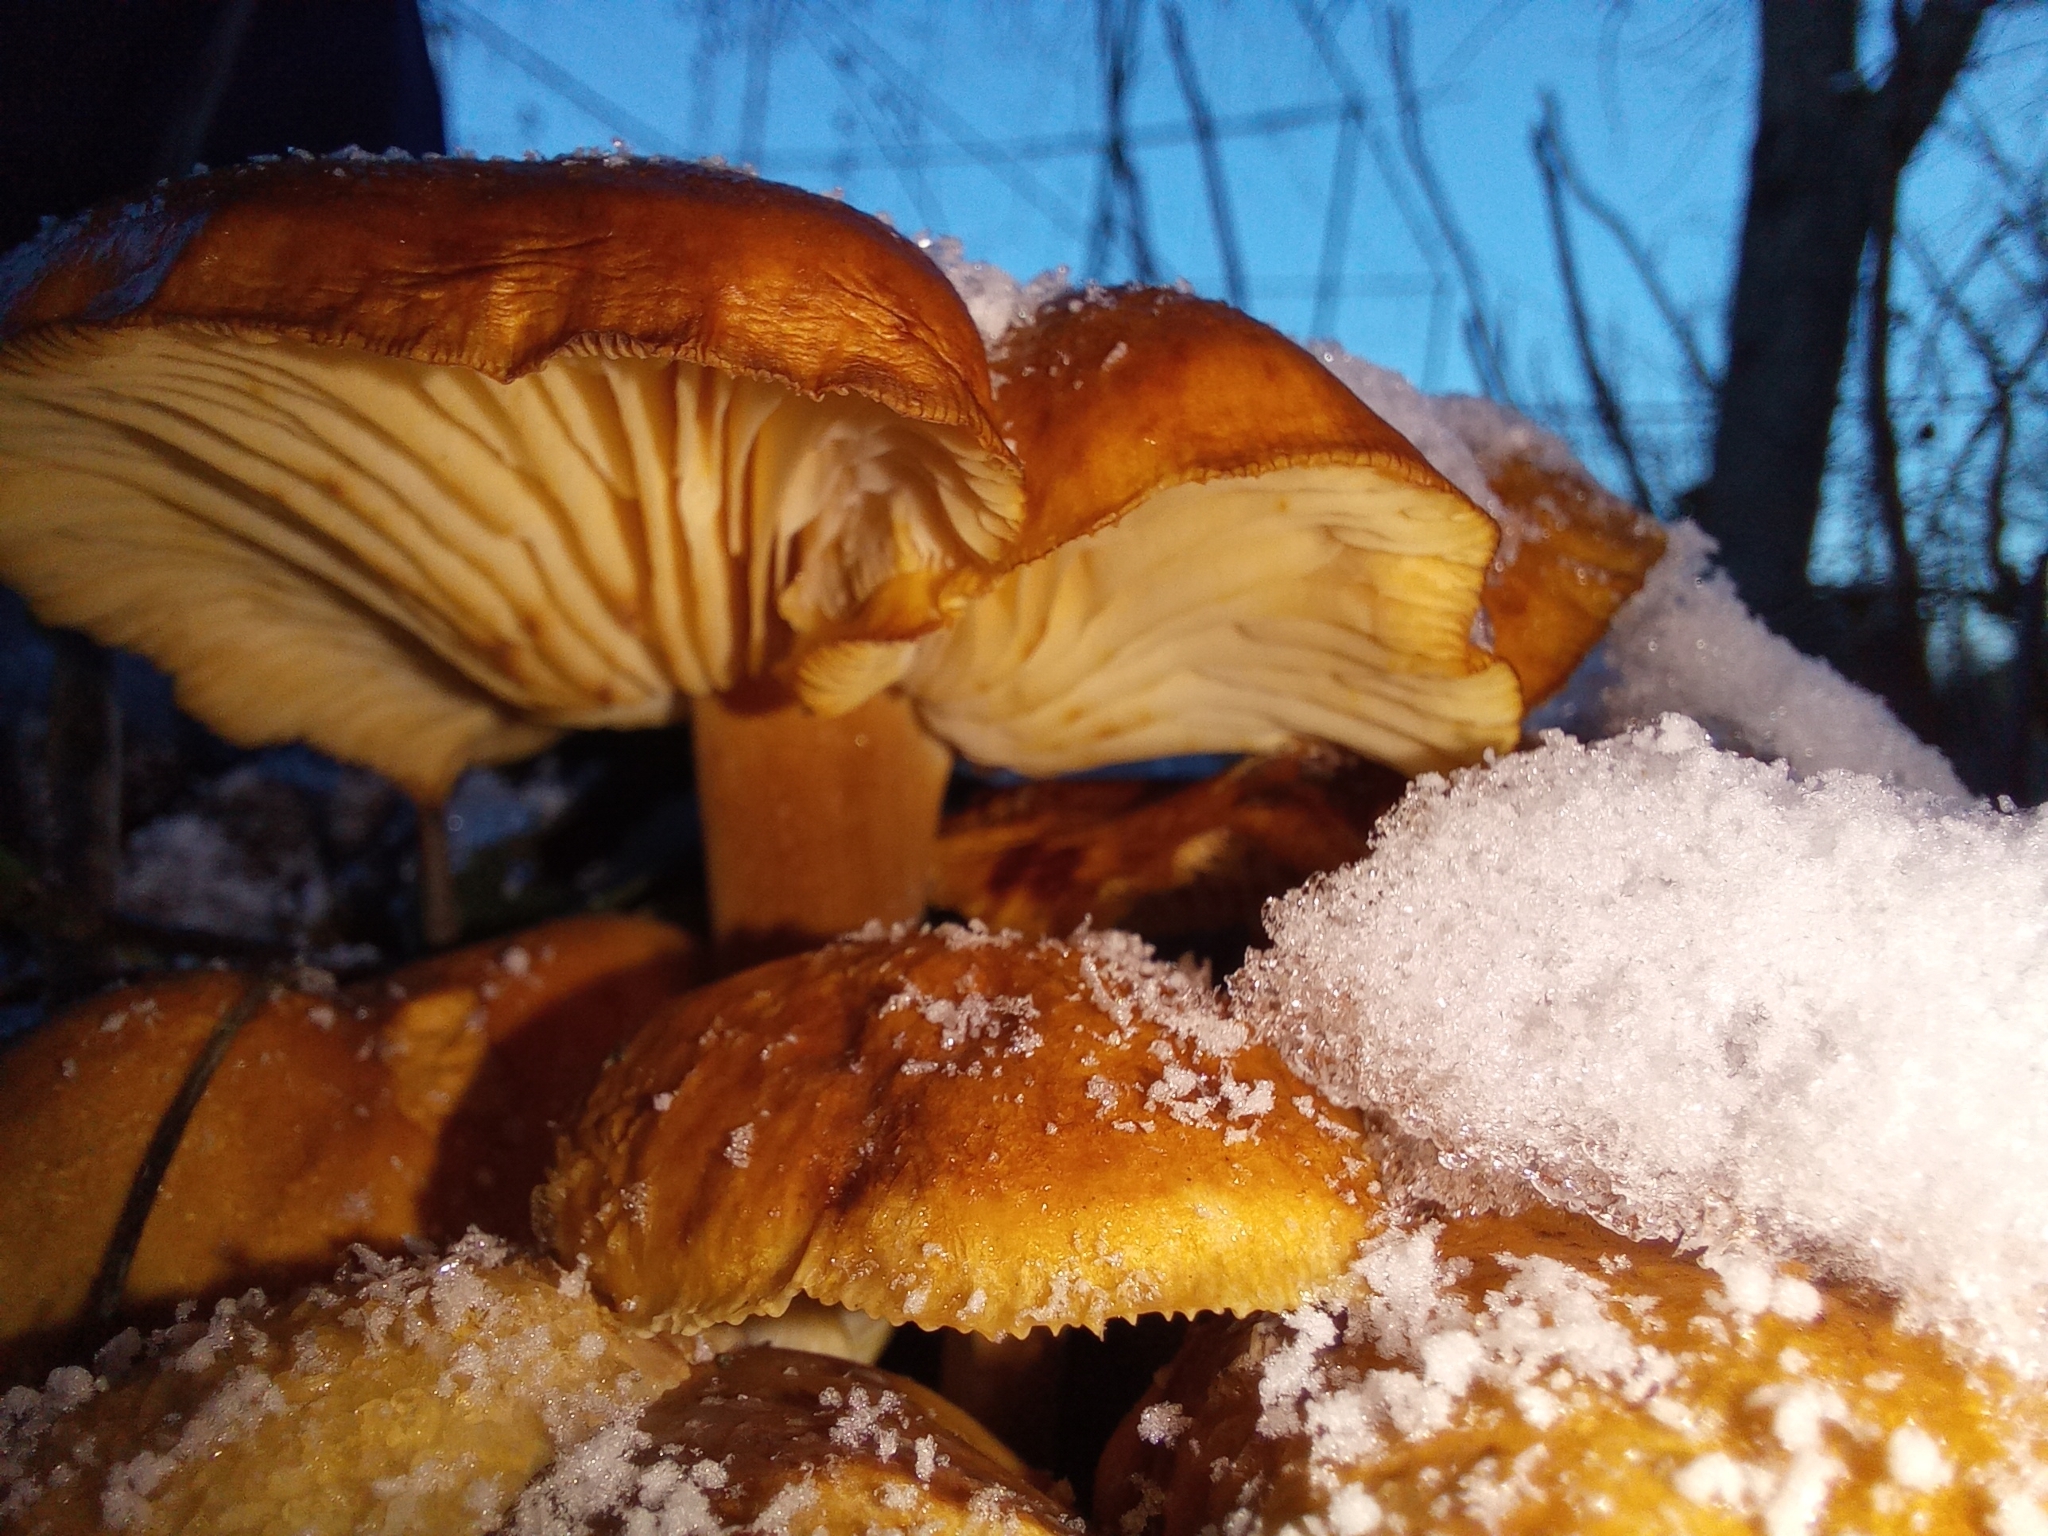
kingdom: Fungi
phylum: Basidiomycota
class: Agaricomycetes
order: Agaricales
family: Physalacriaceae
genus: Flammulina
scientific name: Flammulina
